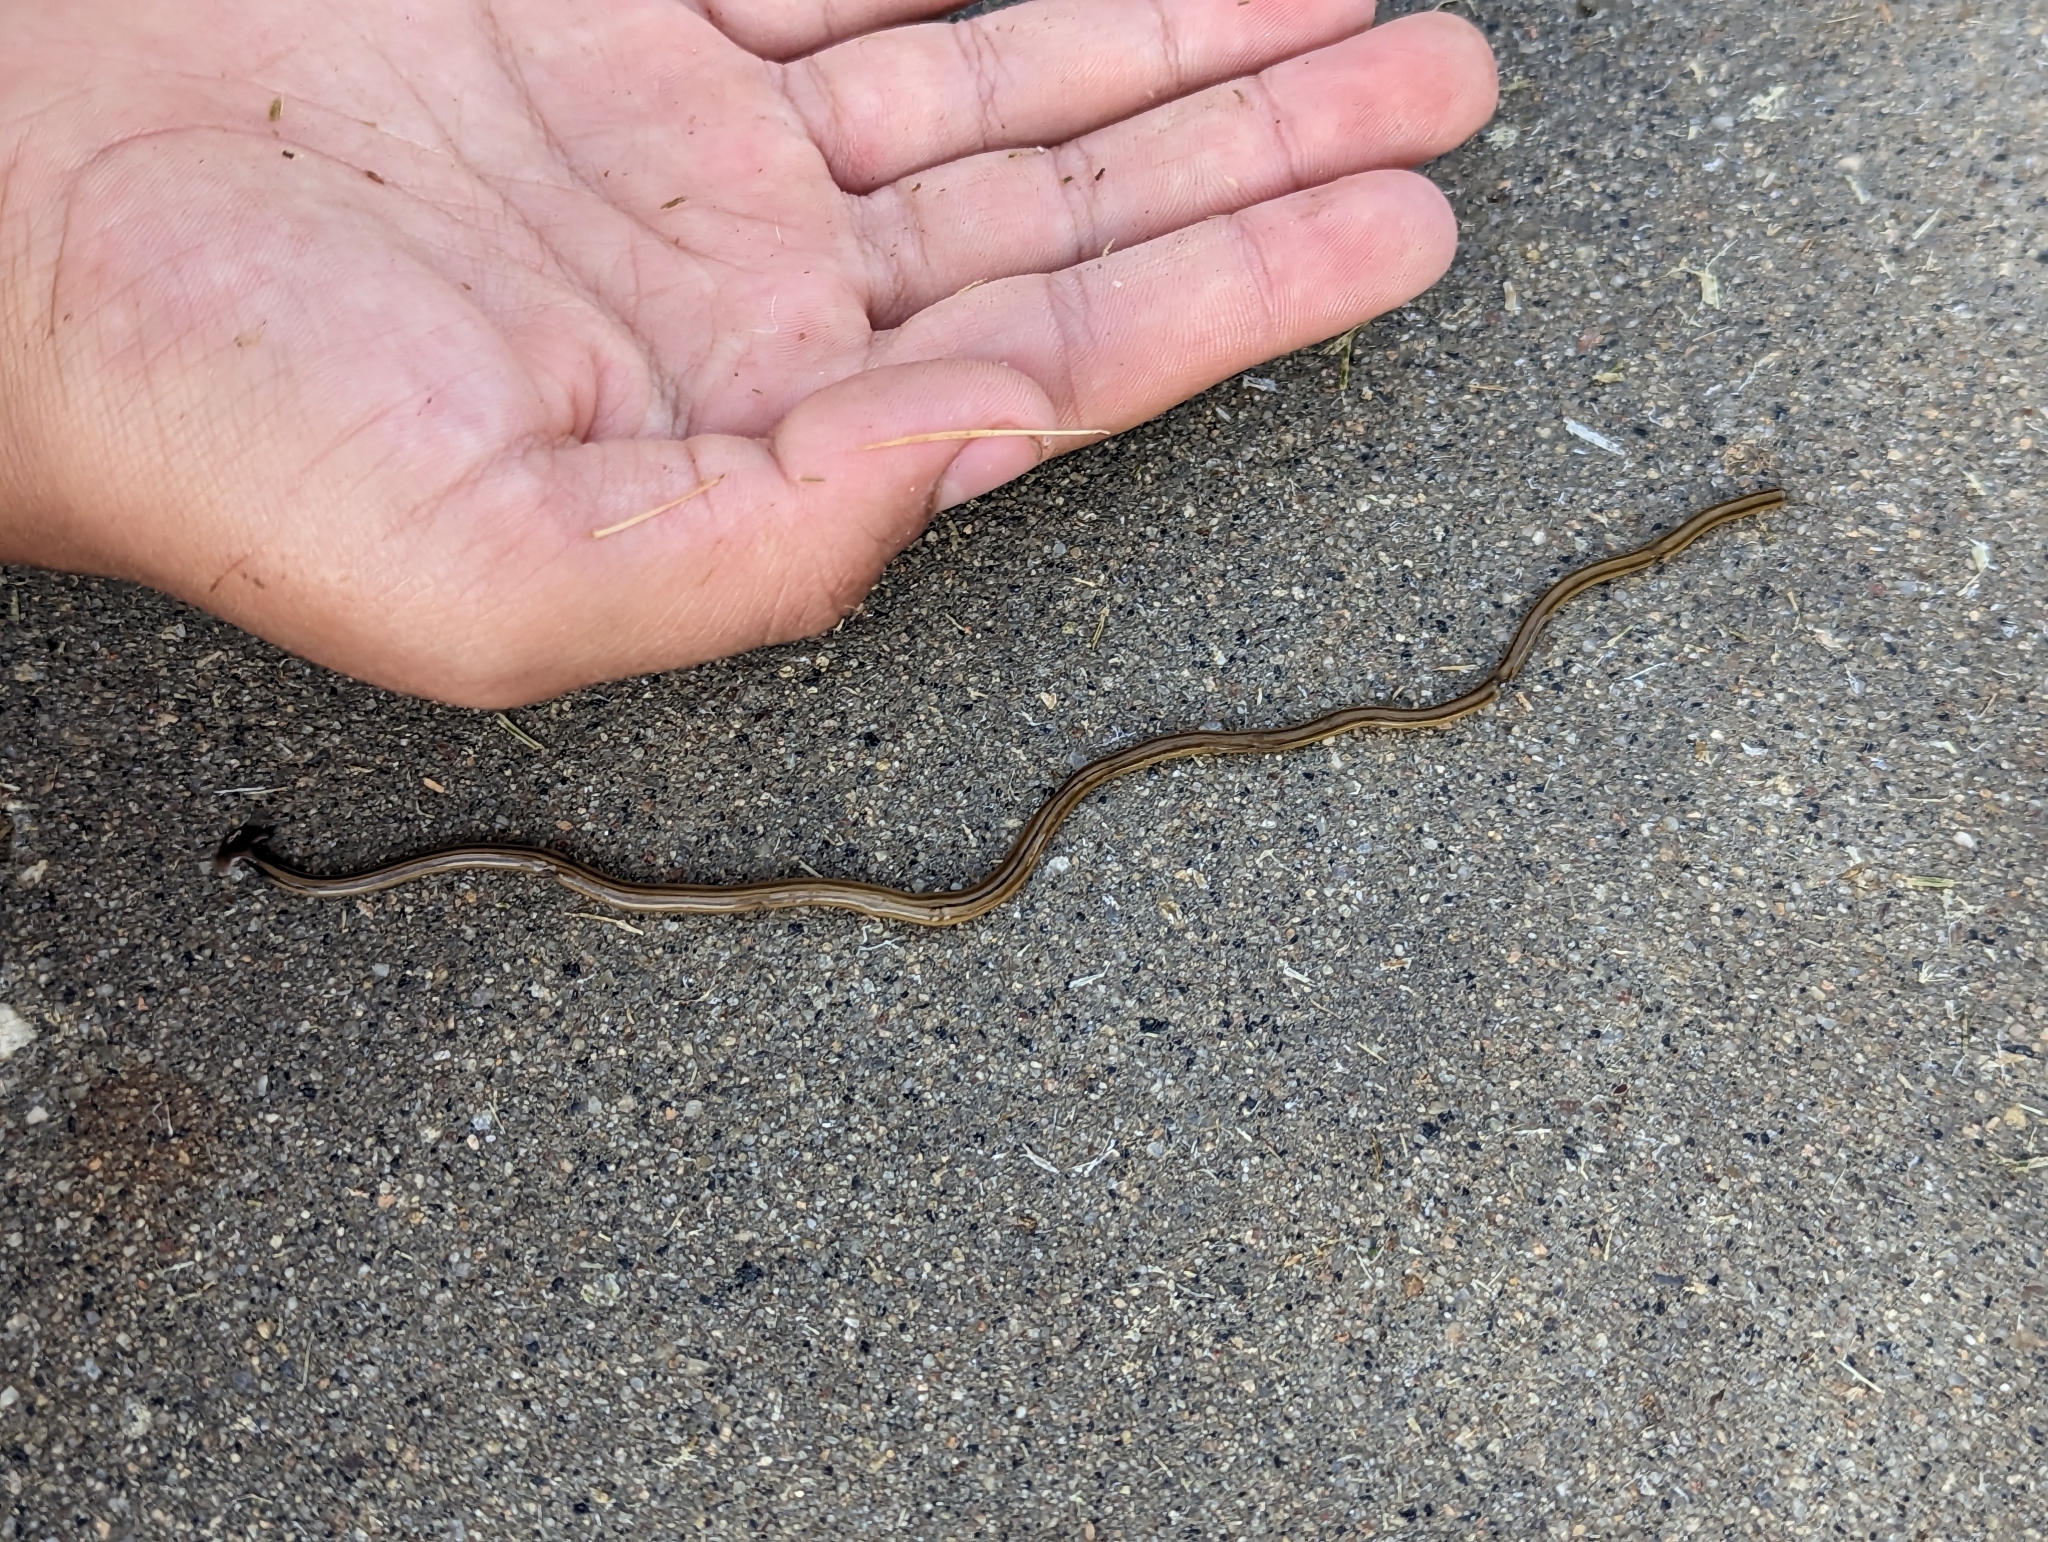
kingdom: Animalia
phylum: Platyhelminthes
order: Tricladida
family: Geoplanidae
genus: Bipalium
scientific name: Bipalium kewense
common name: Hammerhead flatworm
